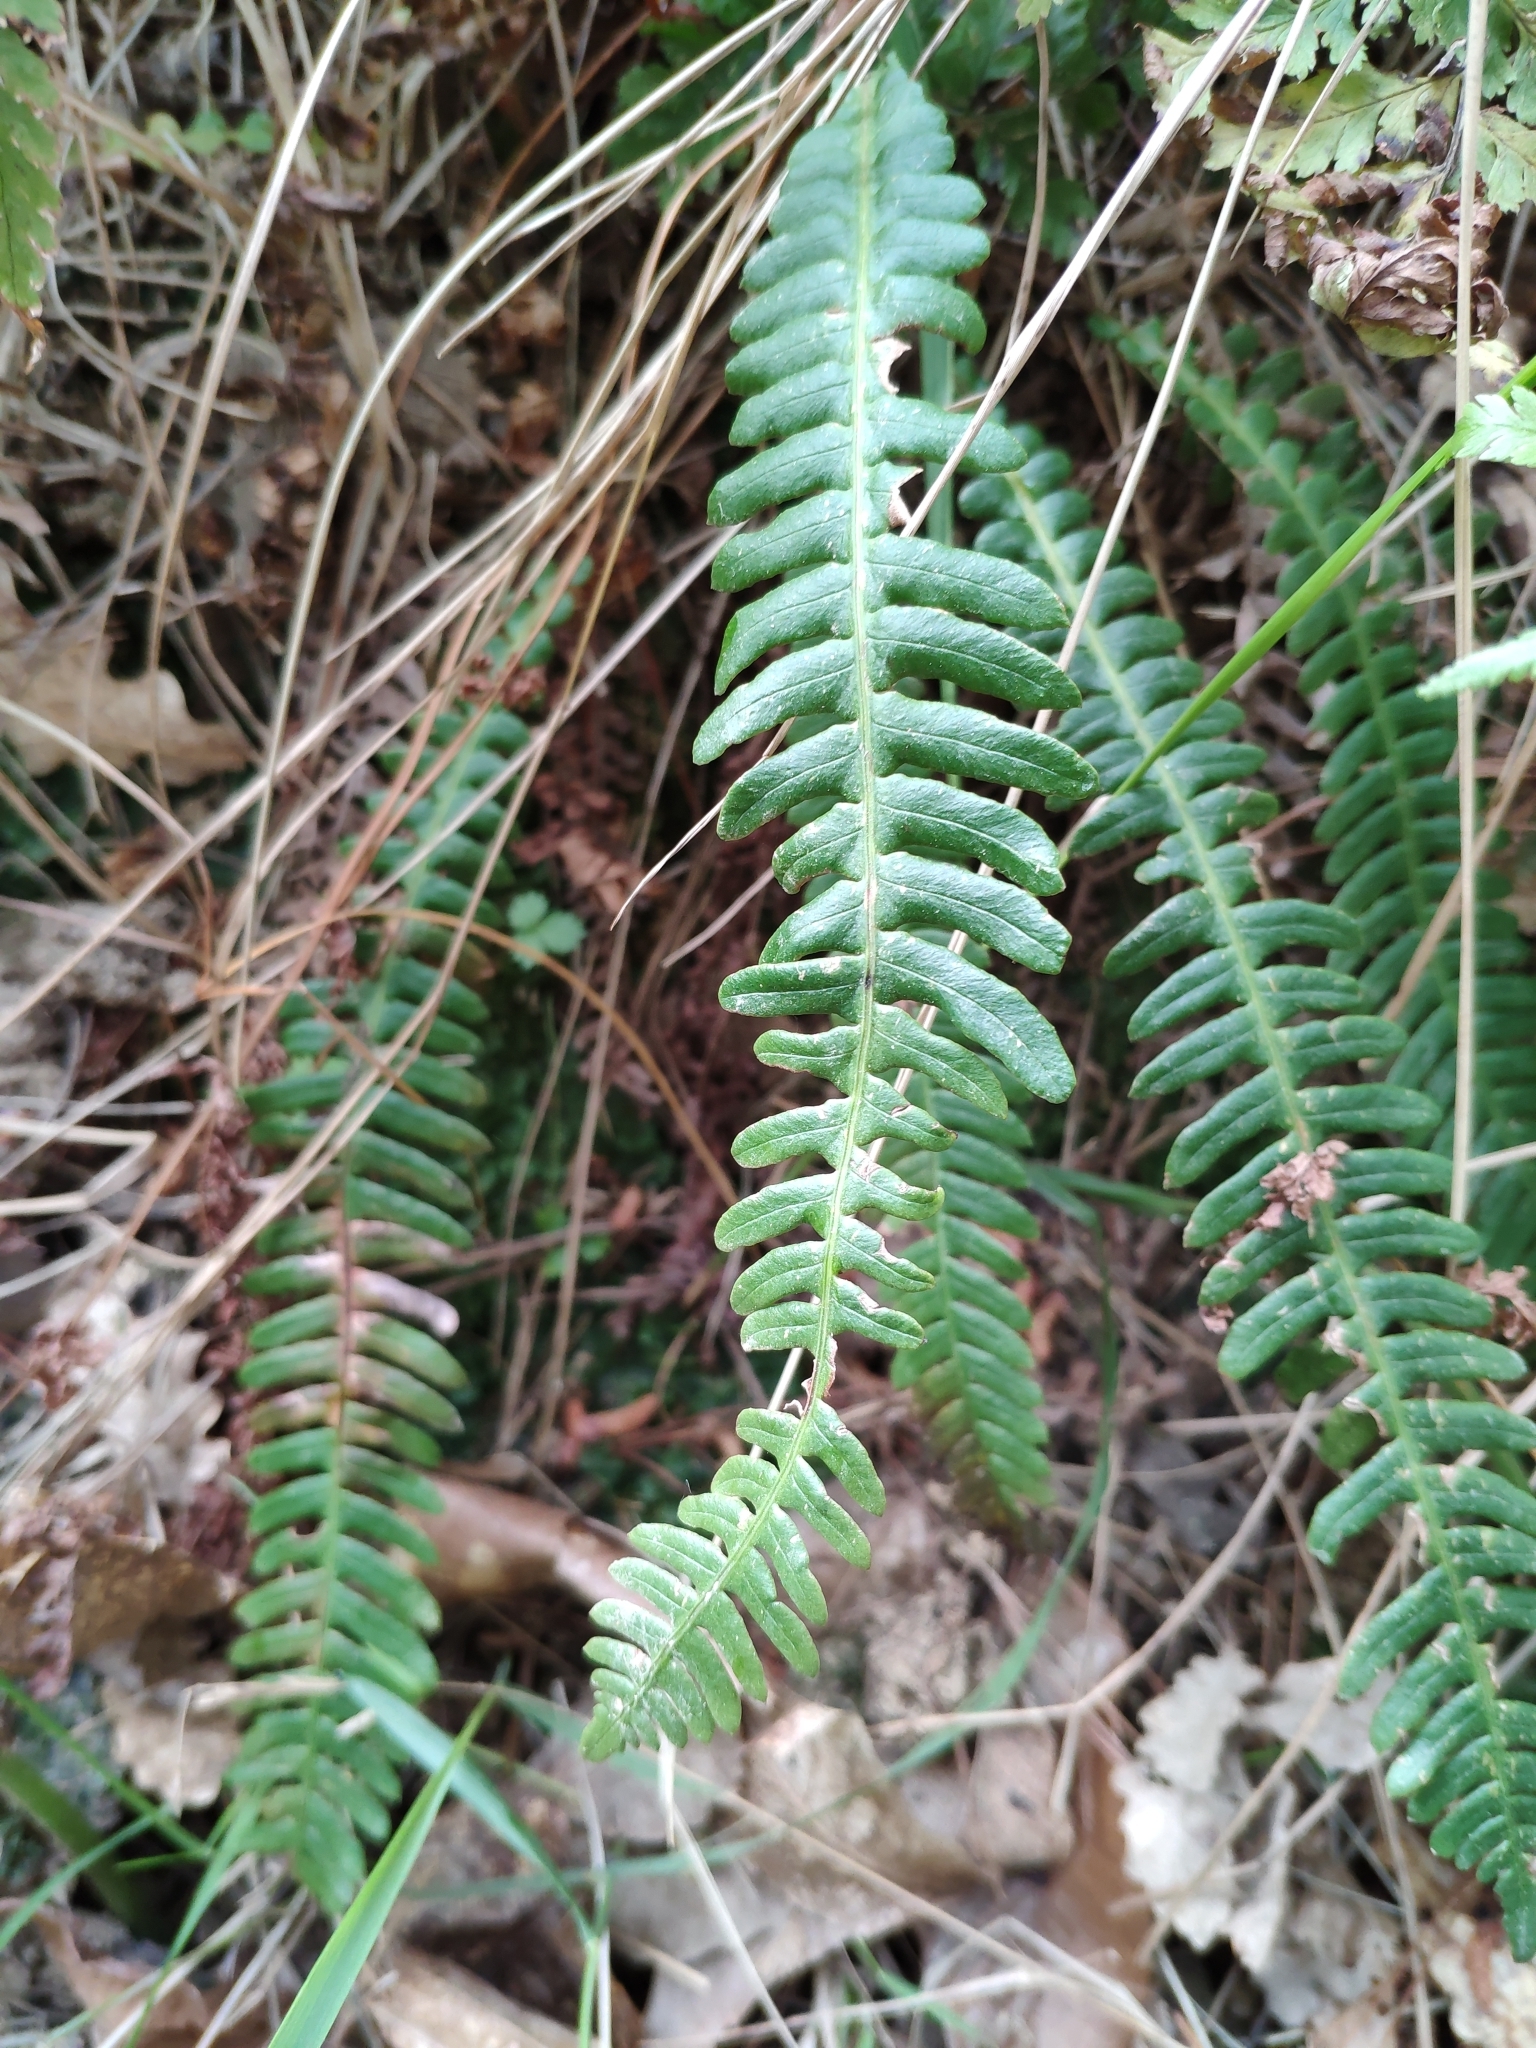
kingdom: Plantae
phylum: Tracheophyta
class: Polypodiopsida
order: Polypodiales
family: Blechnaceae
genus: Struthiopteris
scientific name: Struthiopteris spicant
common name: Deer fern
